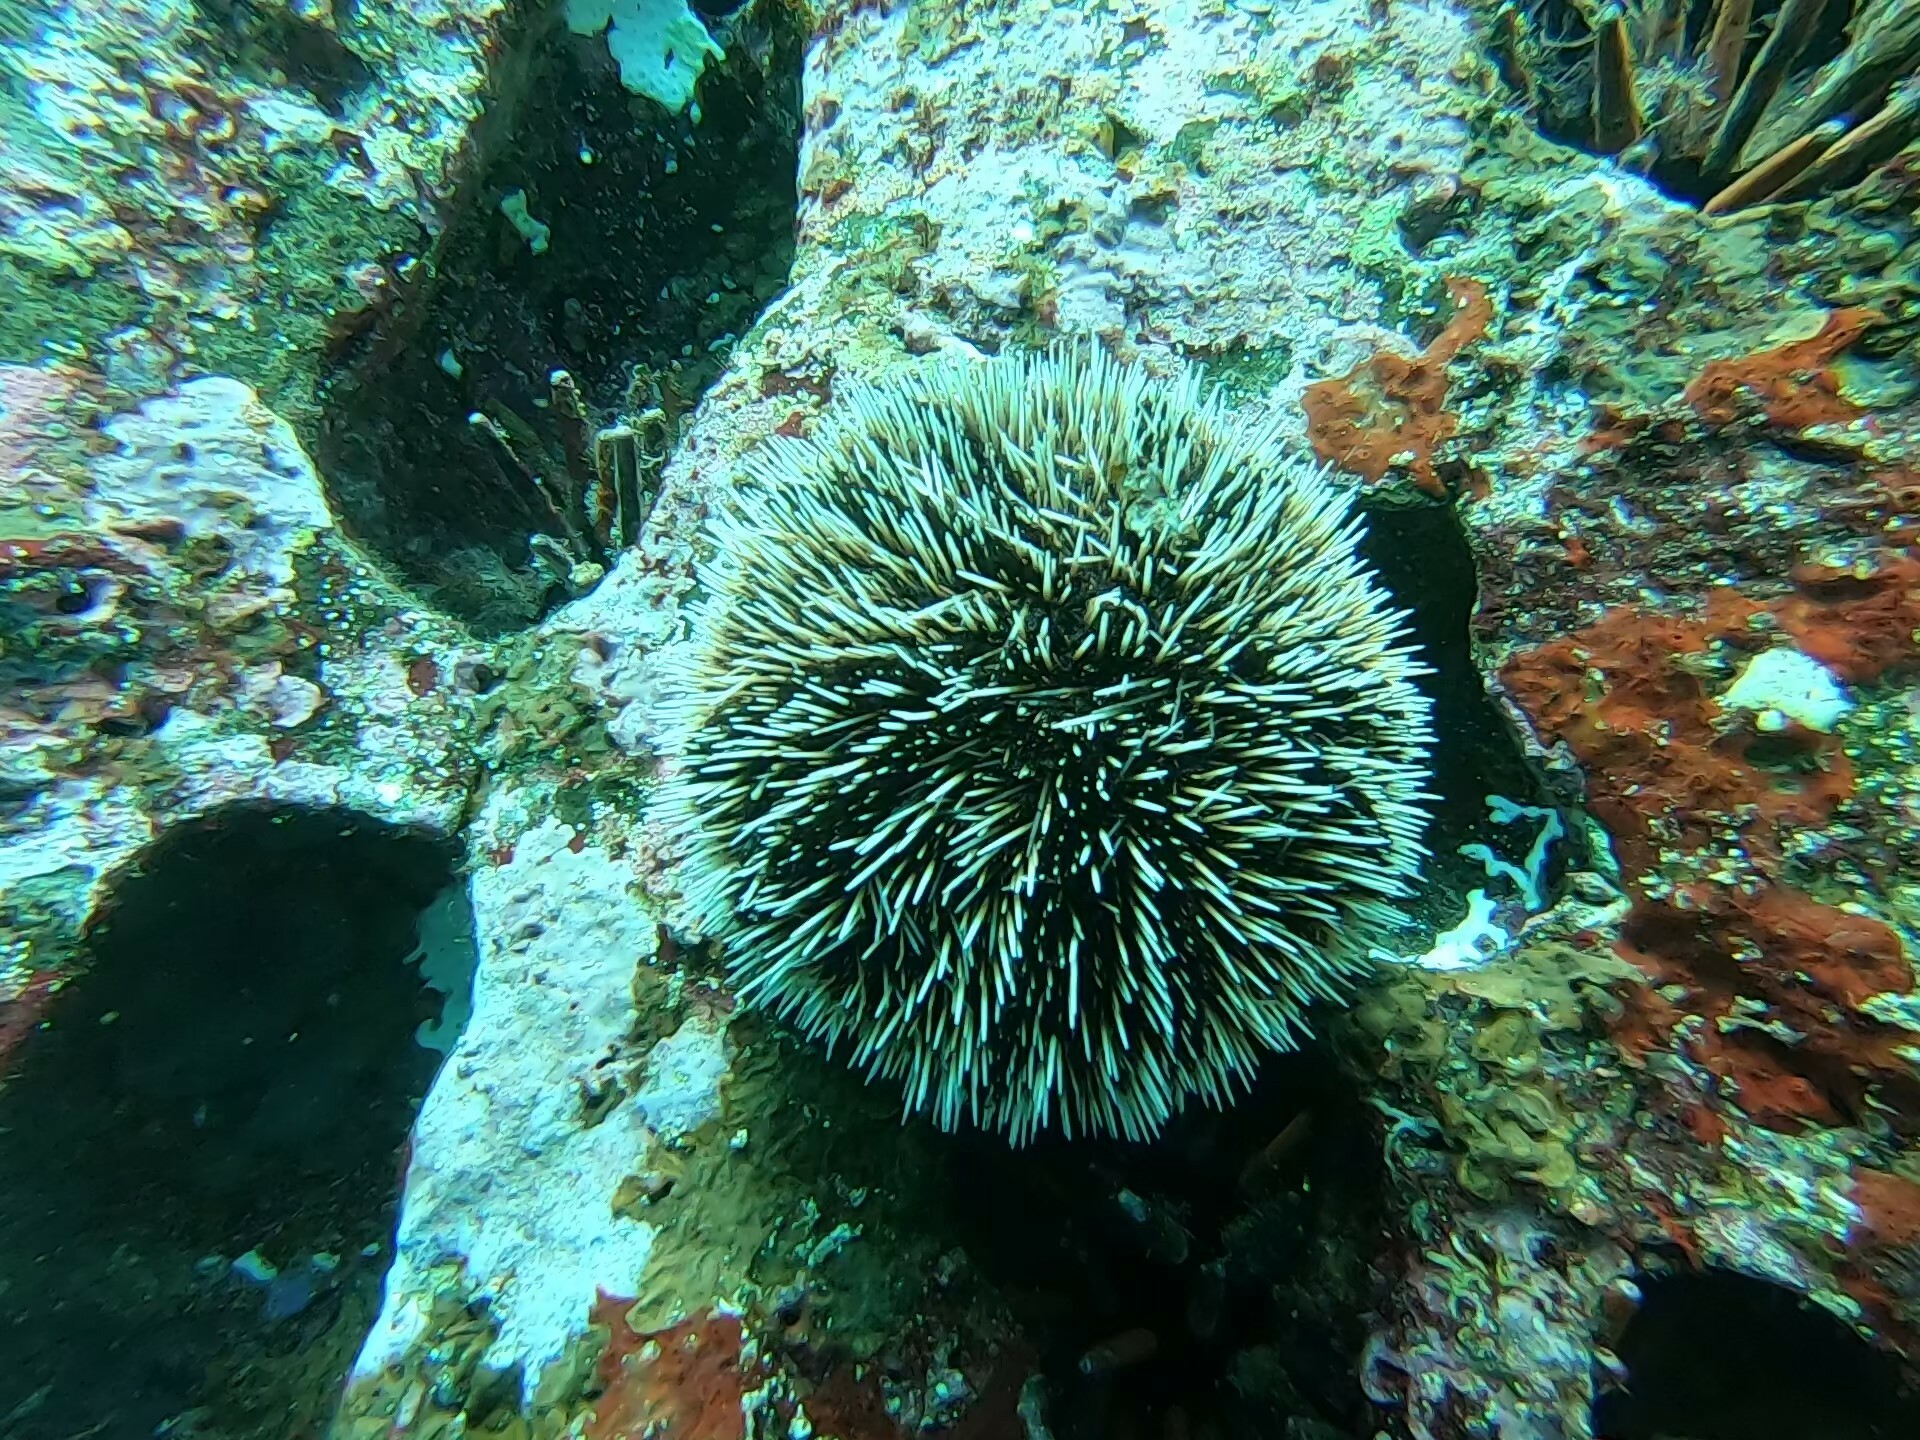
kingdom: Animalia
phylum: Echinodermata
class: Echinoidea
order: Camarodonta
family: Toxopneustidae
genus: Tripneustes
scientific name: Tripneustes depressus
